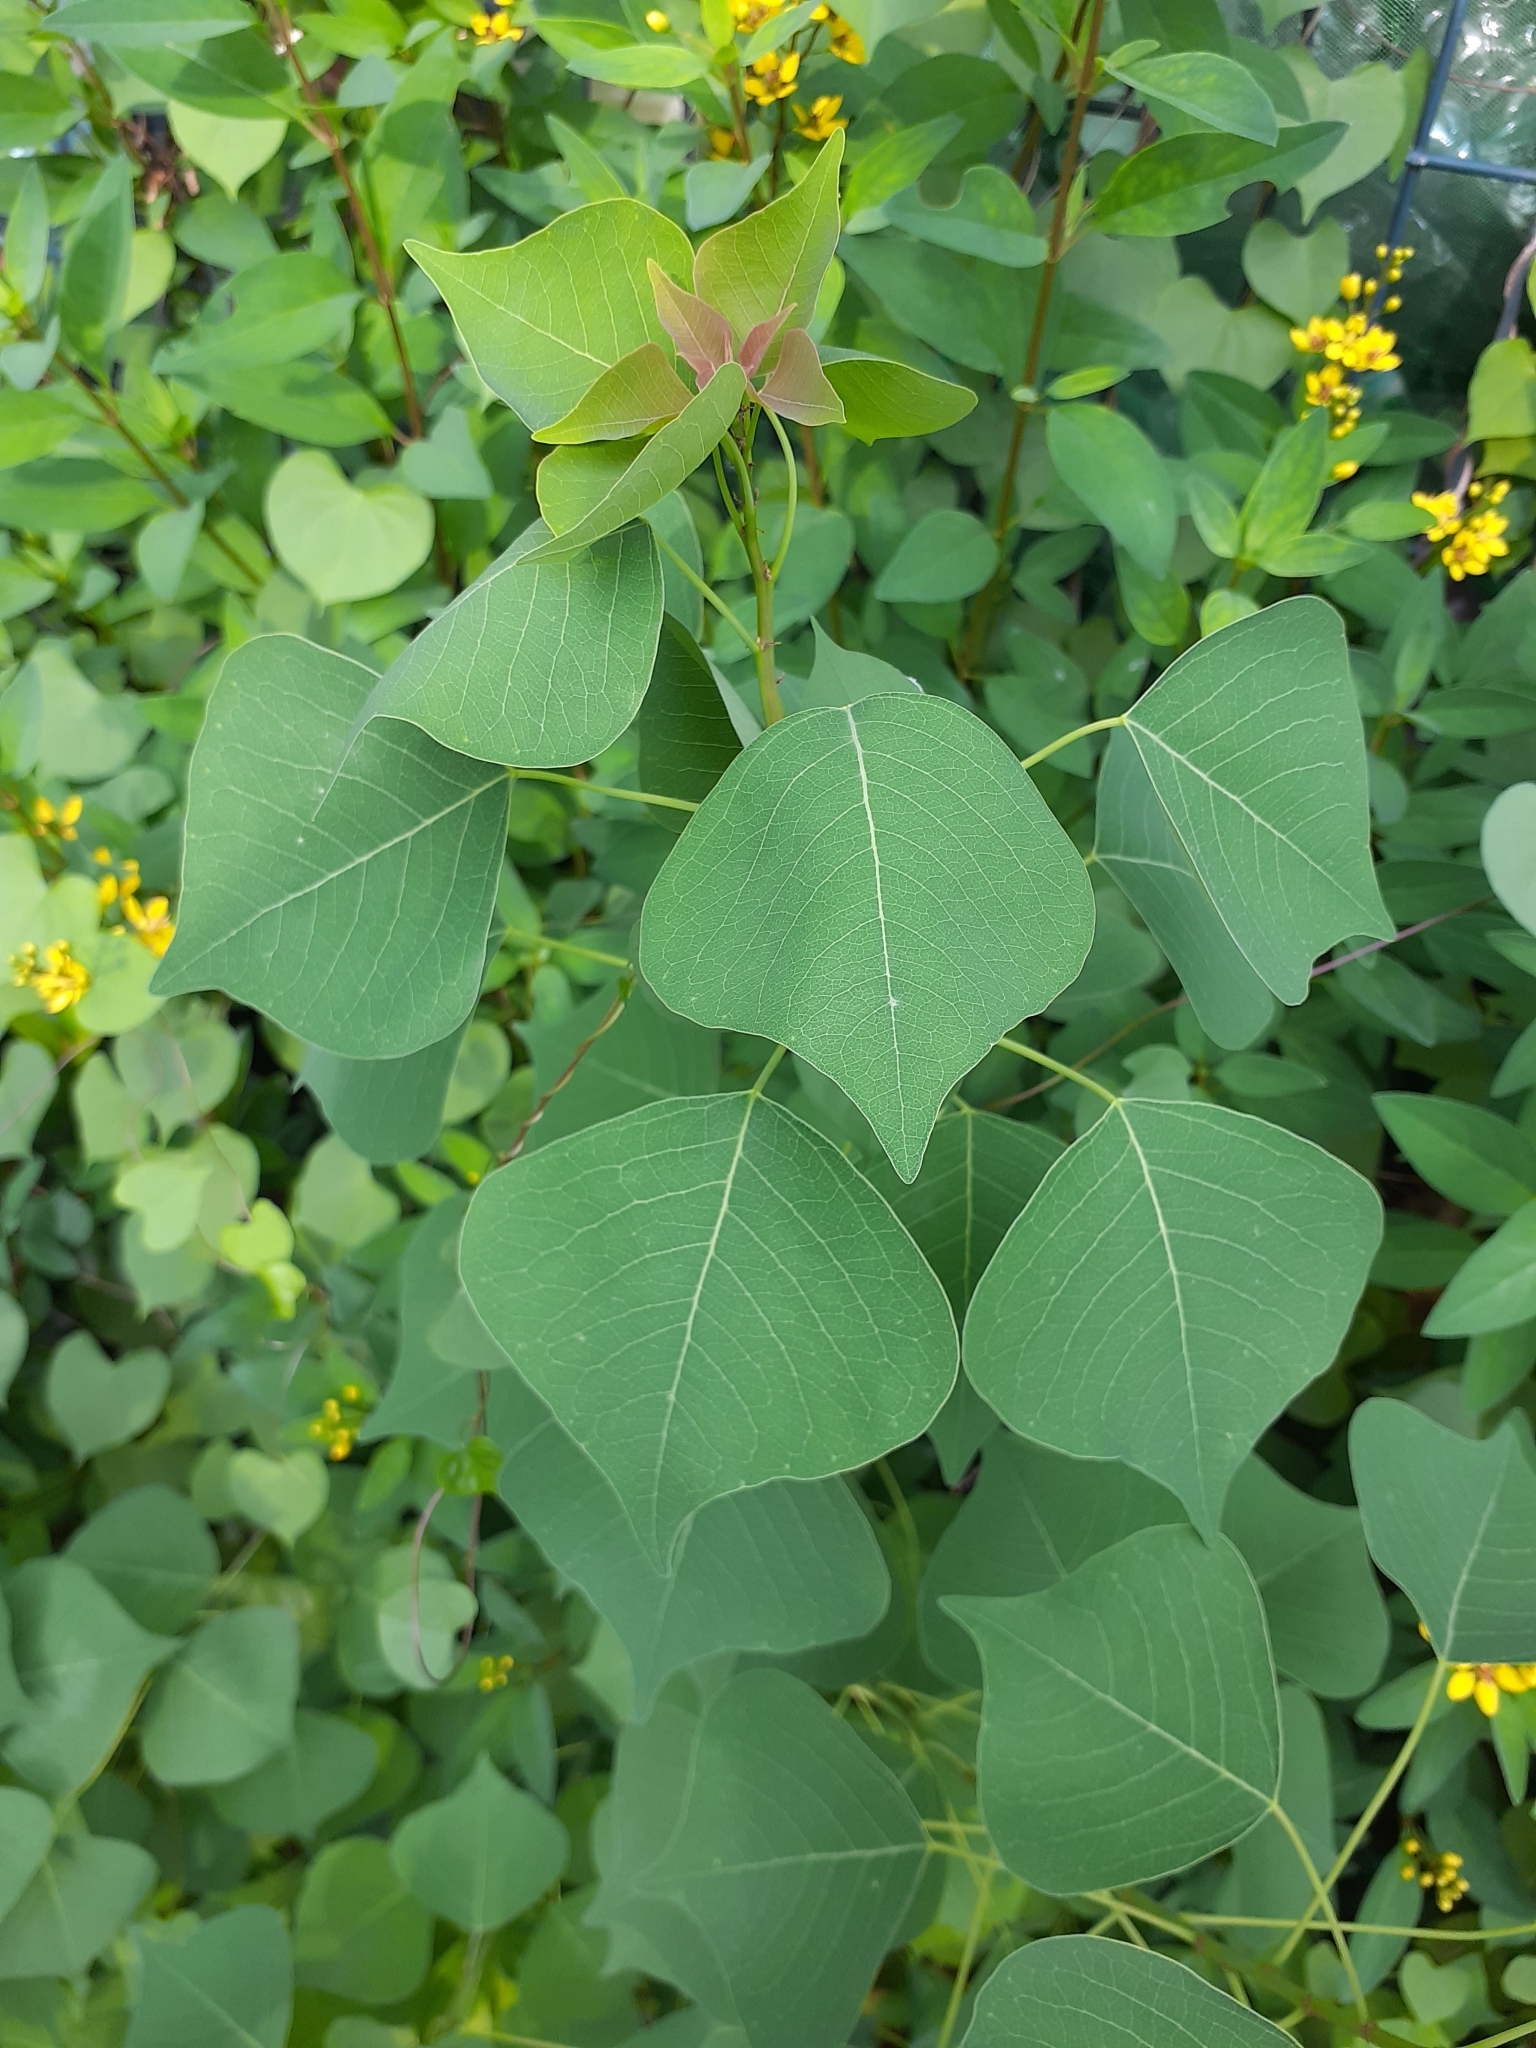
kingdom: Plantae
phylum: Tracheophyta
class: Magnoliopsida
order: Malpighiales
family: Euphorbiaceae
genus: Triadica
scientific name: Triadica sebifera
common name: Chinese tallow
